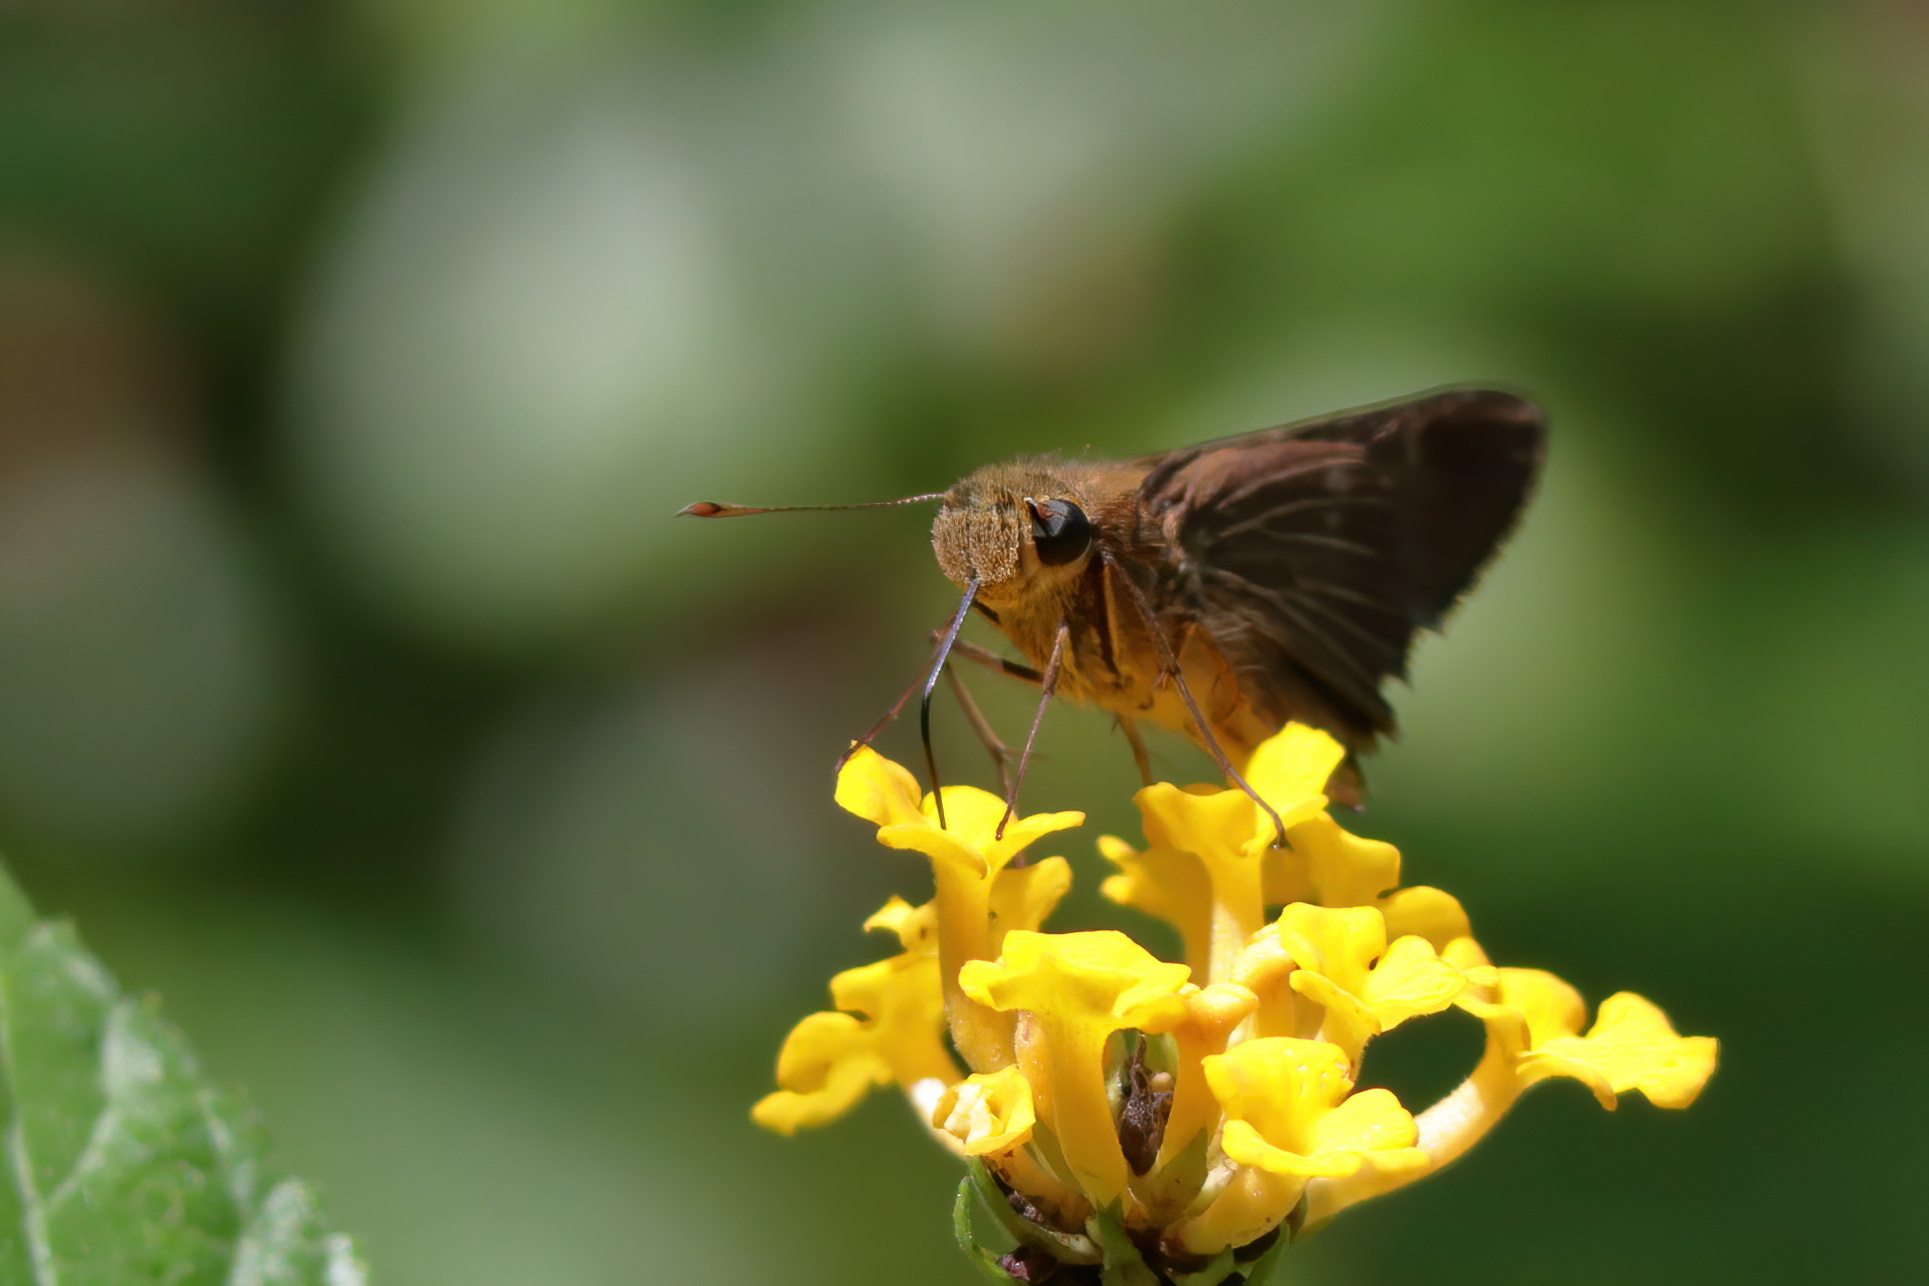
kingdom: Animalia
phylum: Arthropoda
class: Insecta
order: Lepidoptera
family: Hesperiidae
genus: Panoquina
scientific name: Panoquina ocola
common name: Ocola skipper
